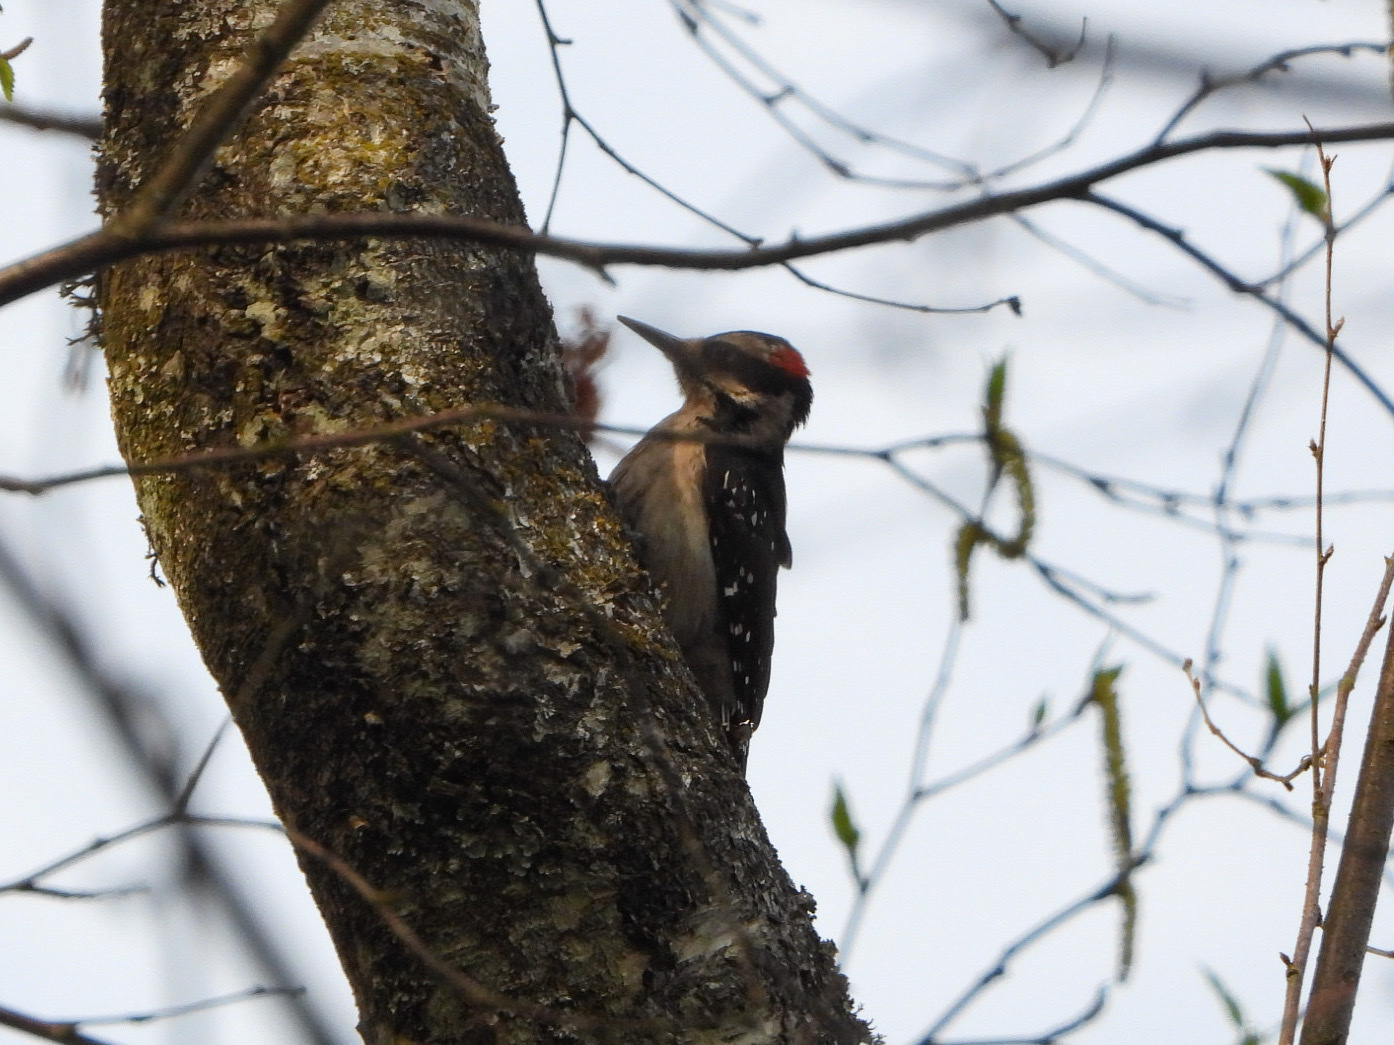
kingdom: Animalia
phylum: Chordata
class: Aves
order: Piciformes
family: Picidae
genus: Leuconotopicus
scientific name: Leuconotopicus villosus
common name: Hairy woodpecker
